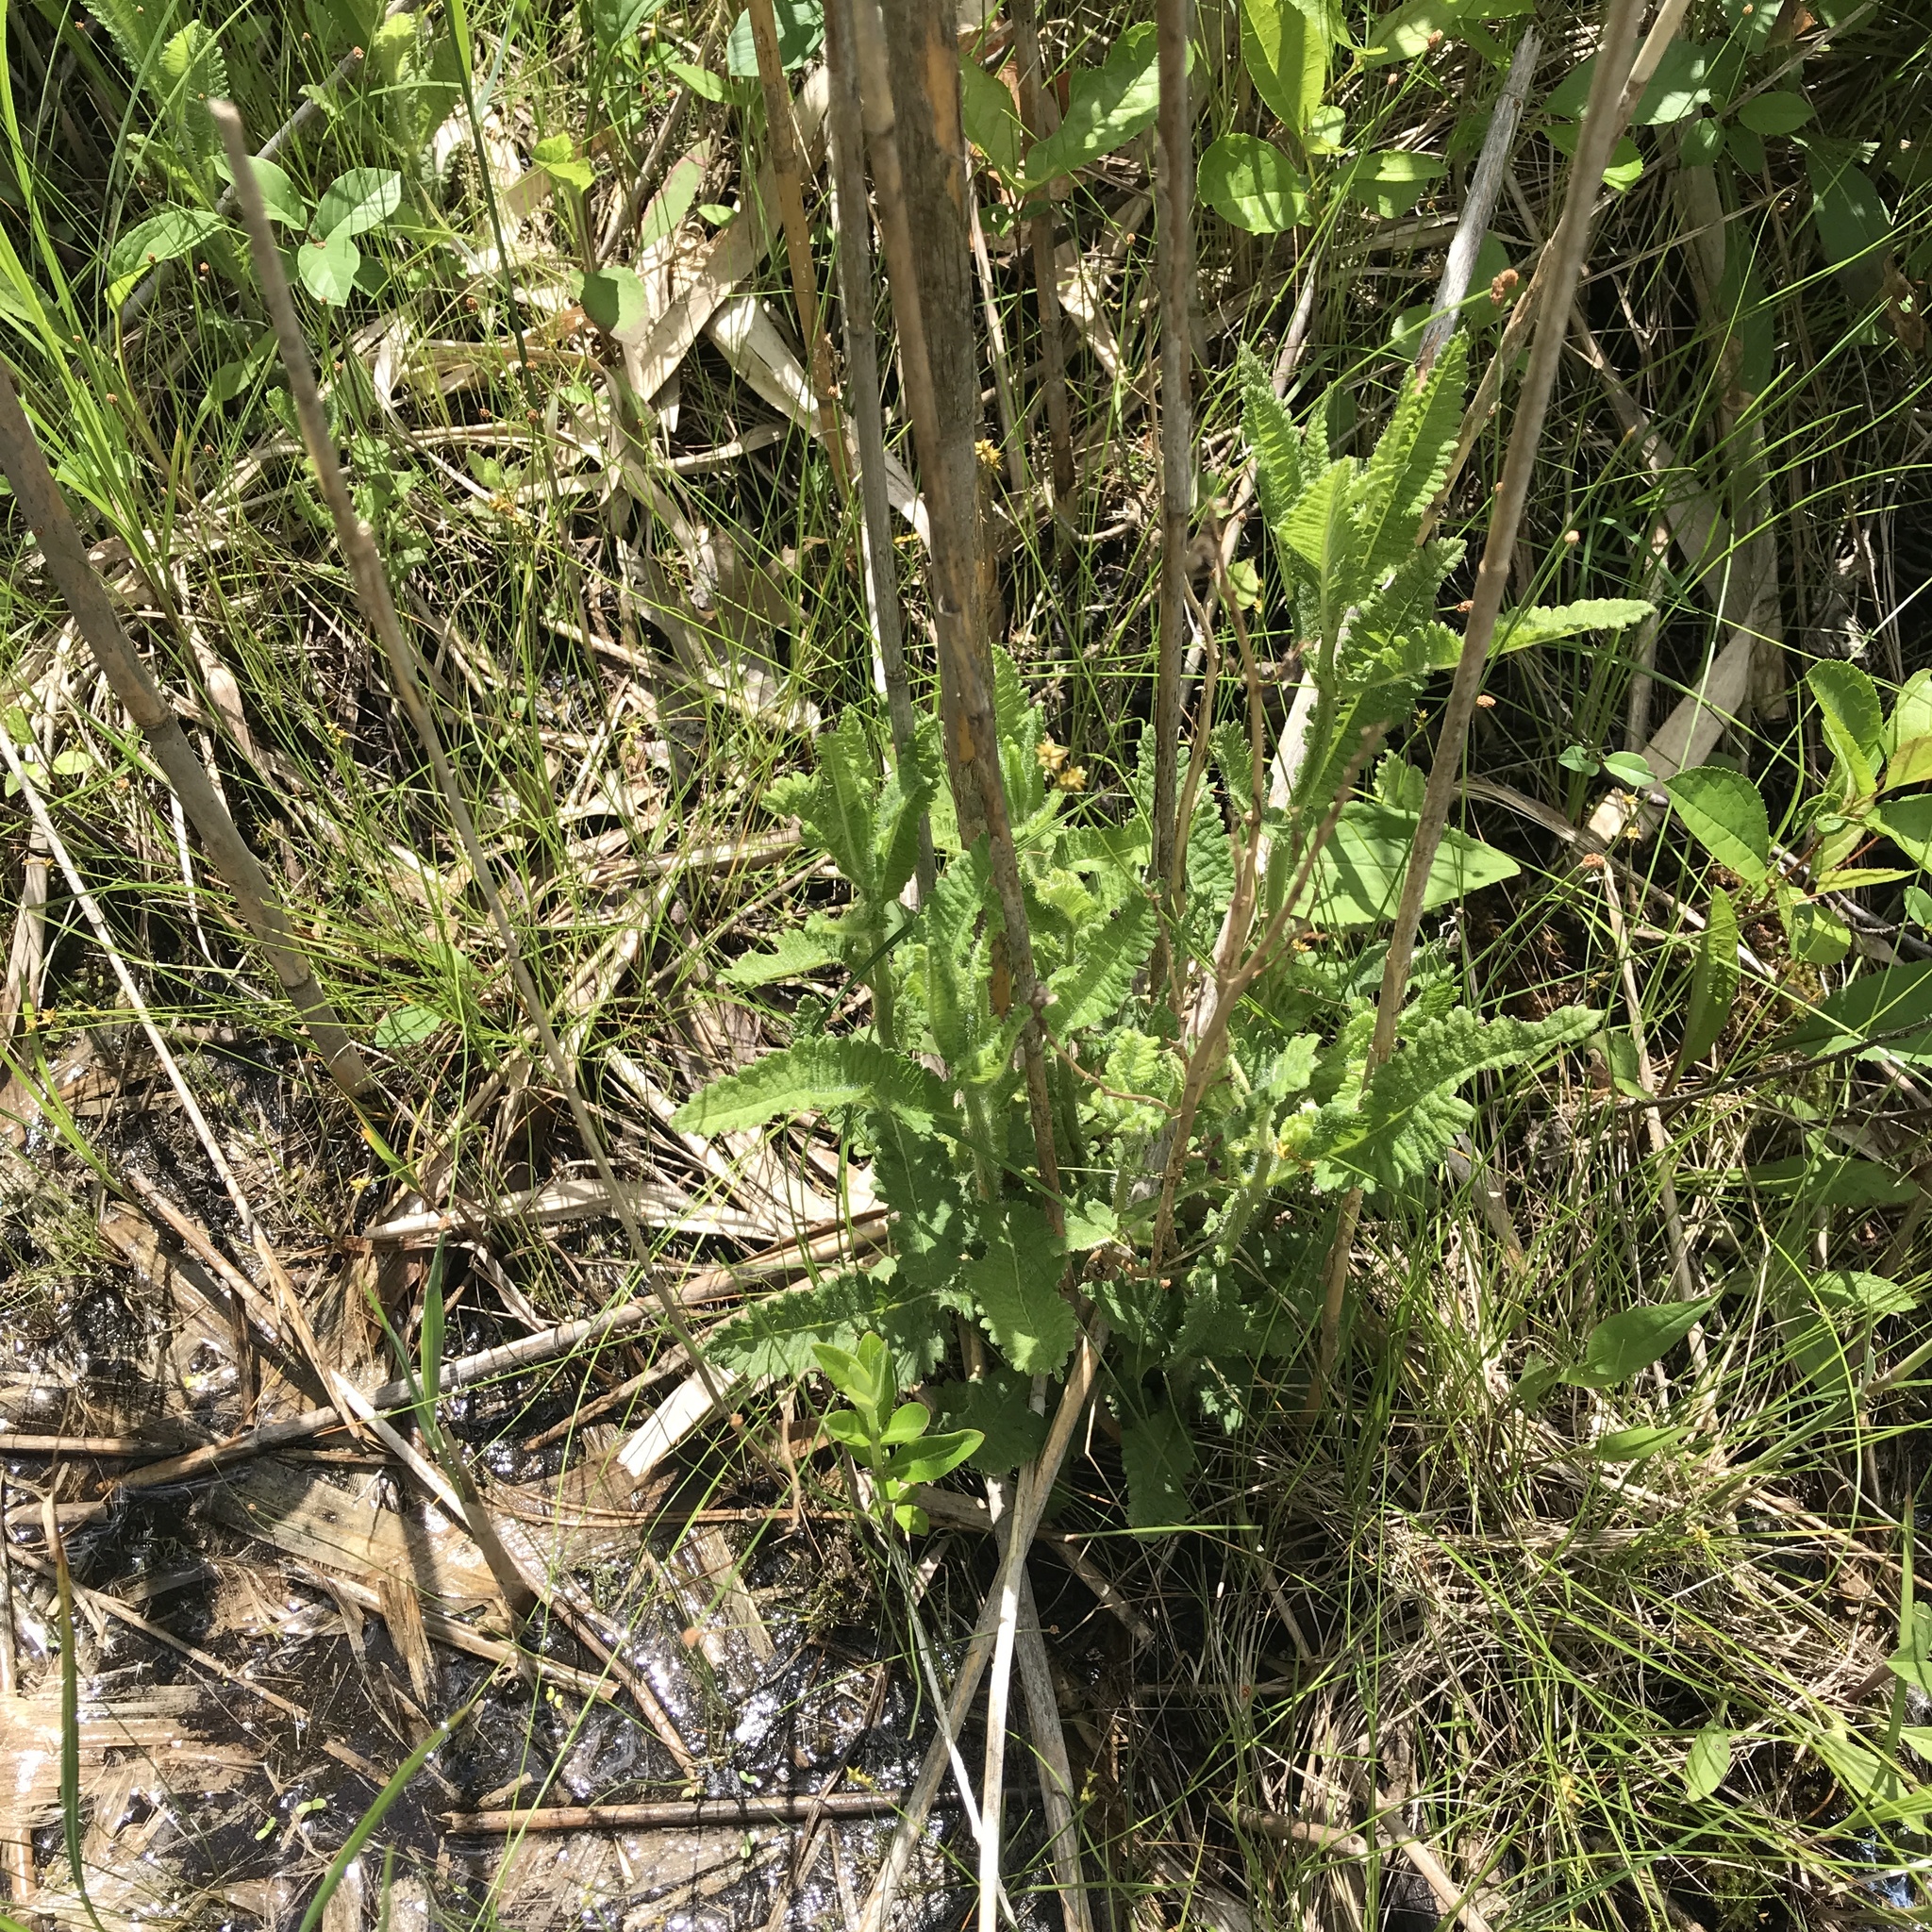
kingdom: Plantae
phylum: Tracheophyta
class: Magnoliopsida
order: Lamiales
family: Orobanchaceae
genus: Pedicularis
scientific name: Pedicularis lanceolata
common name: Swamp lousewort
